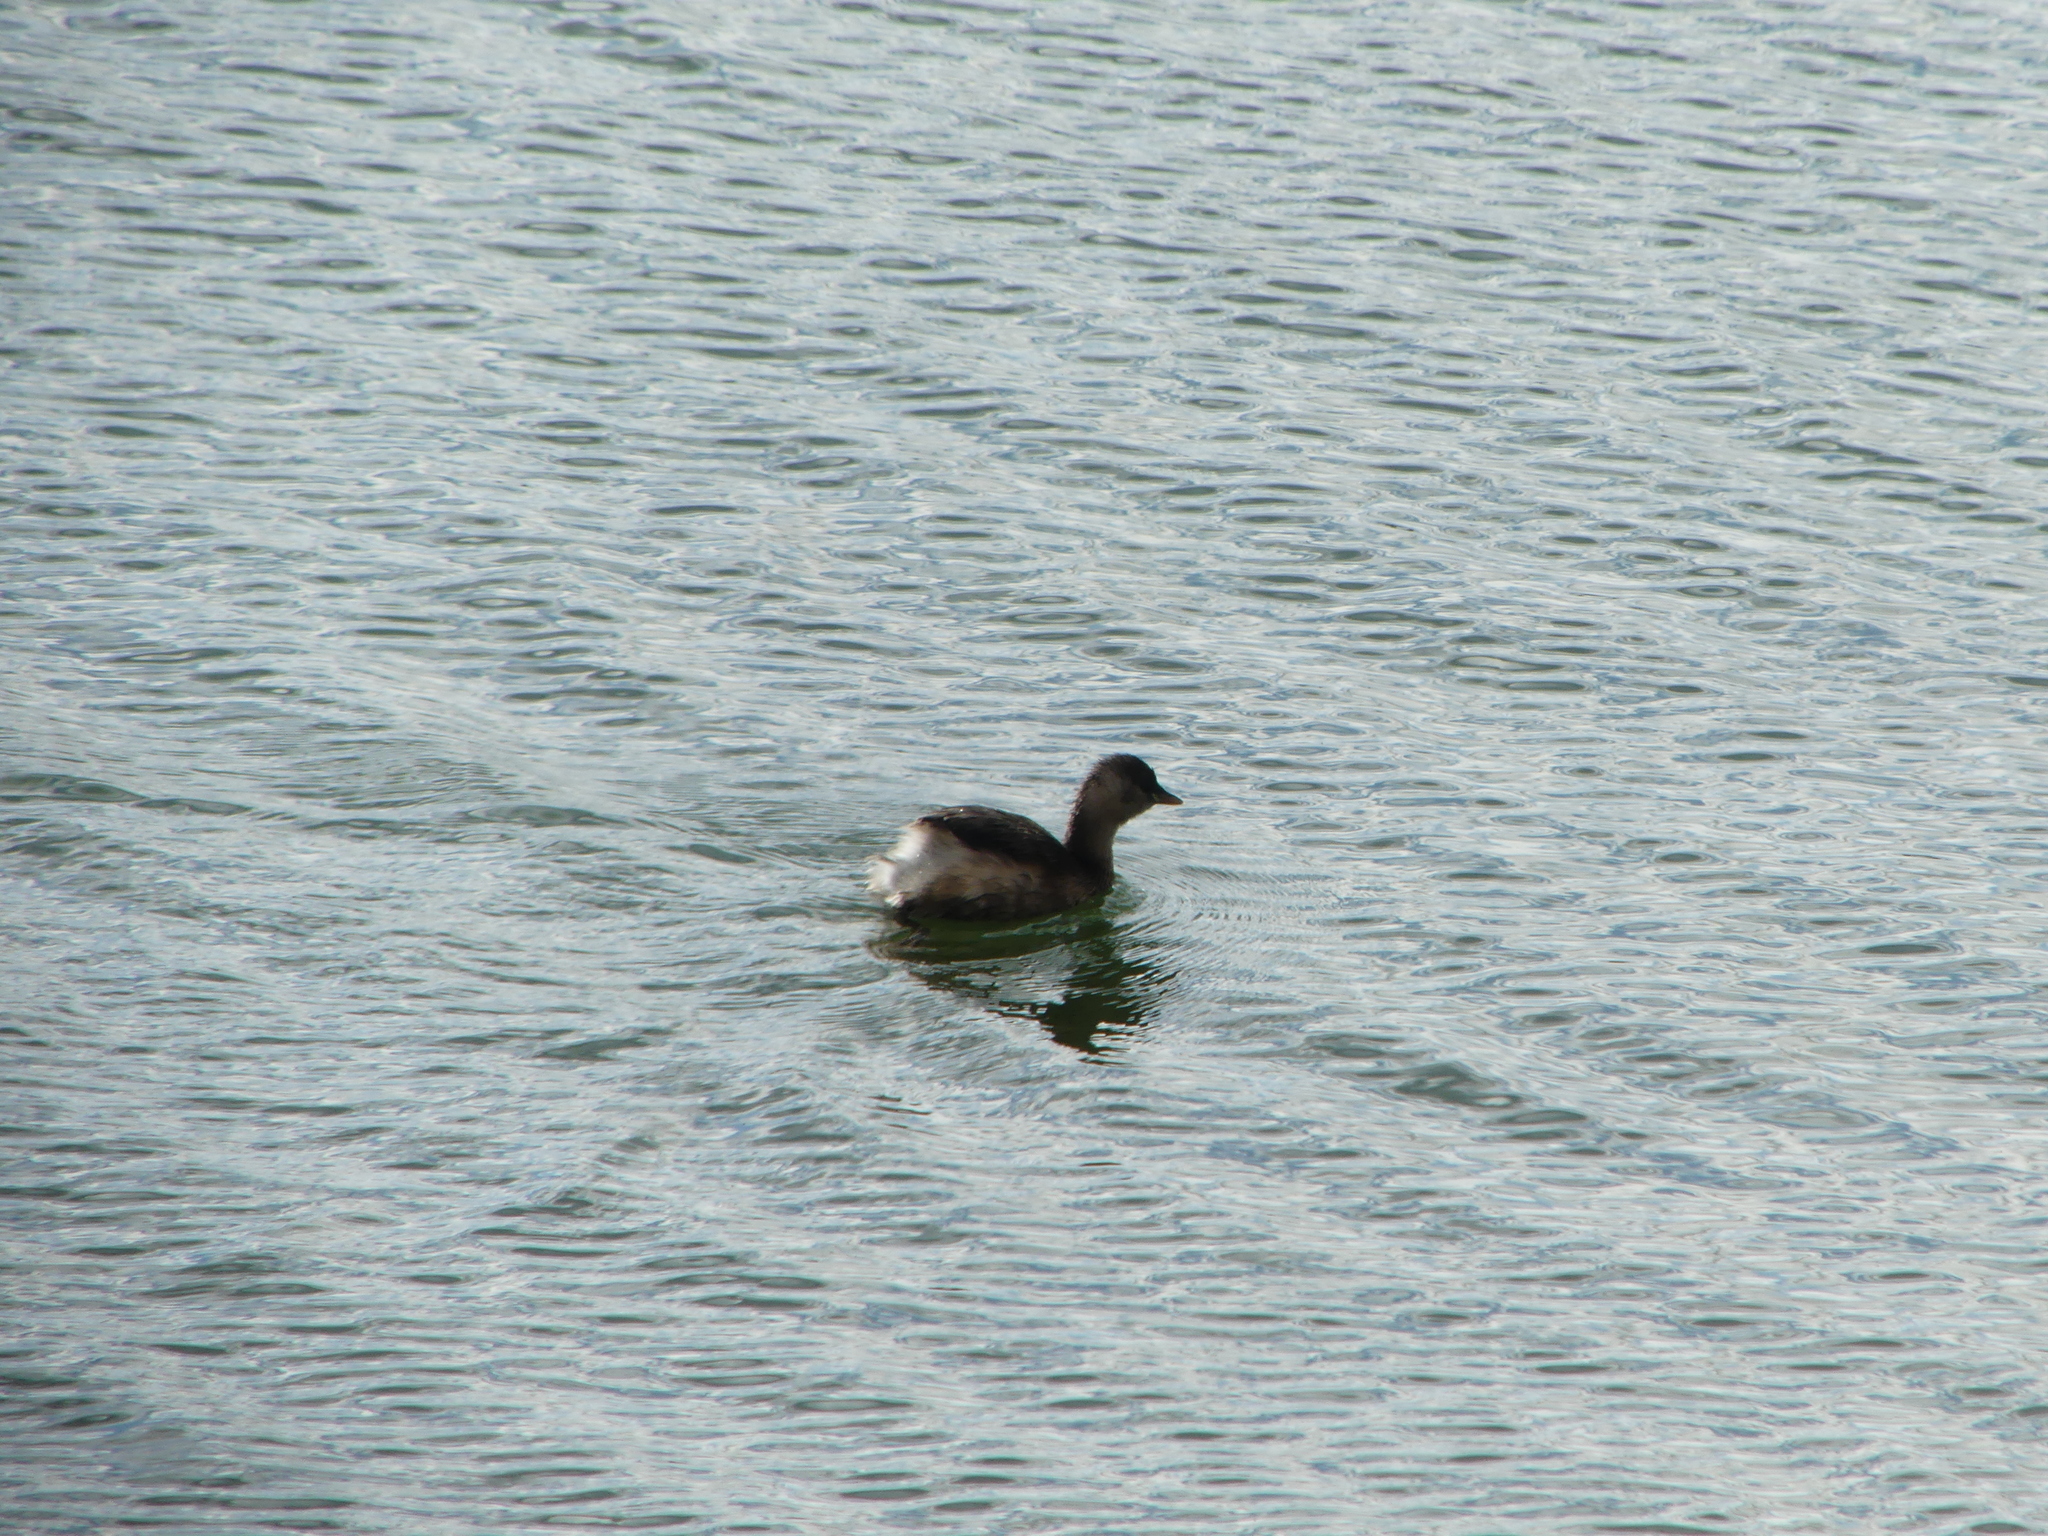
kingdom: Animalia
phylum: Chordata
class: Aves
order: Podicipediformes
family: Podicipedidae
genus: Tachybaptus
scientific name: Tachybaptus ruficollis
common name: Little grebe
